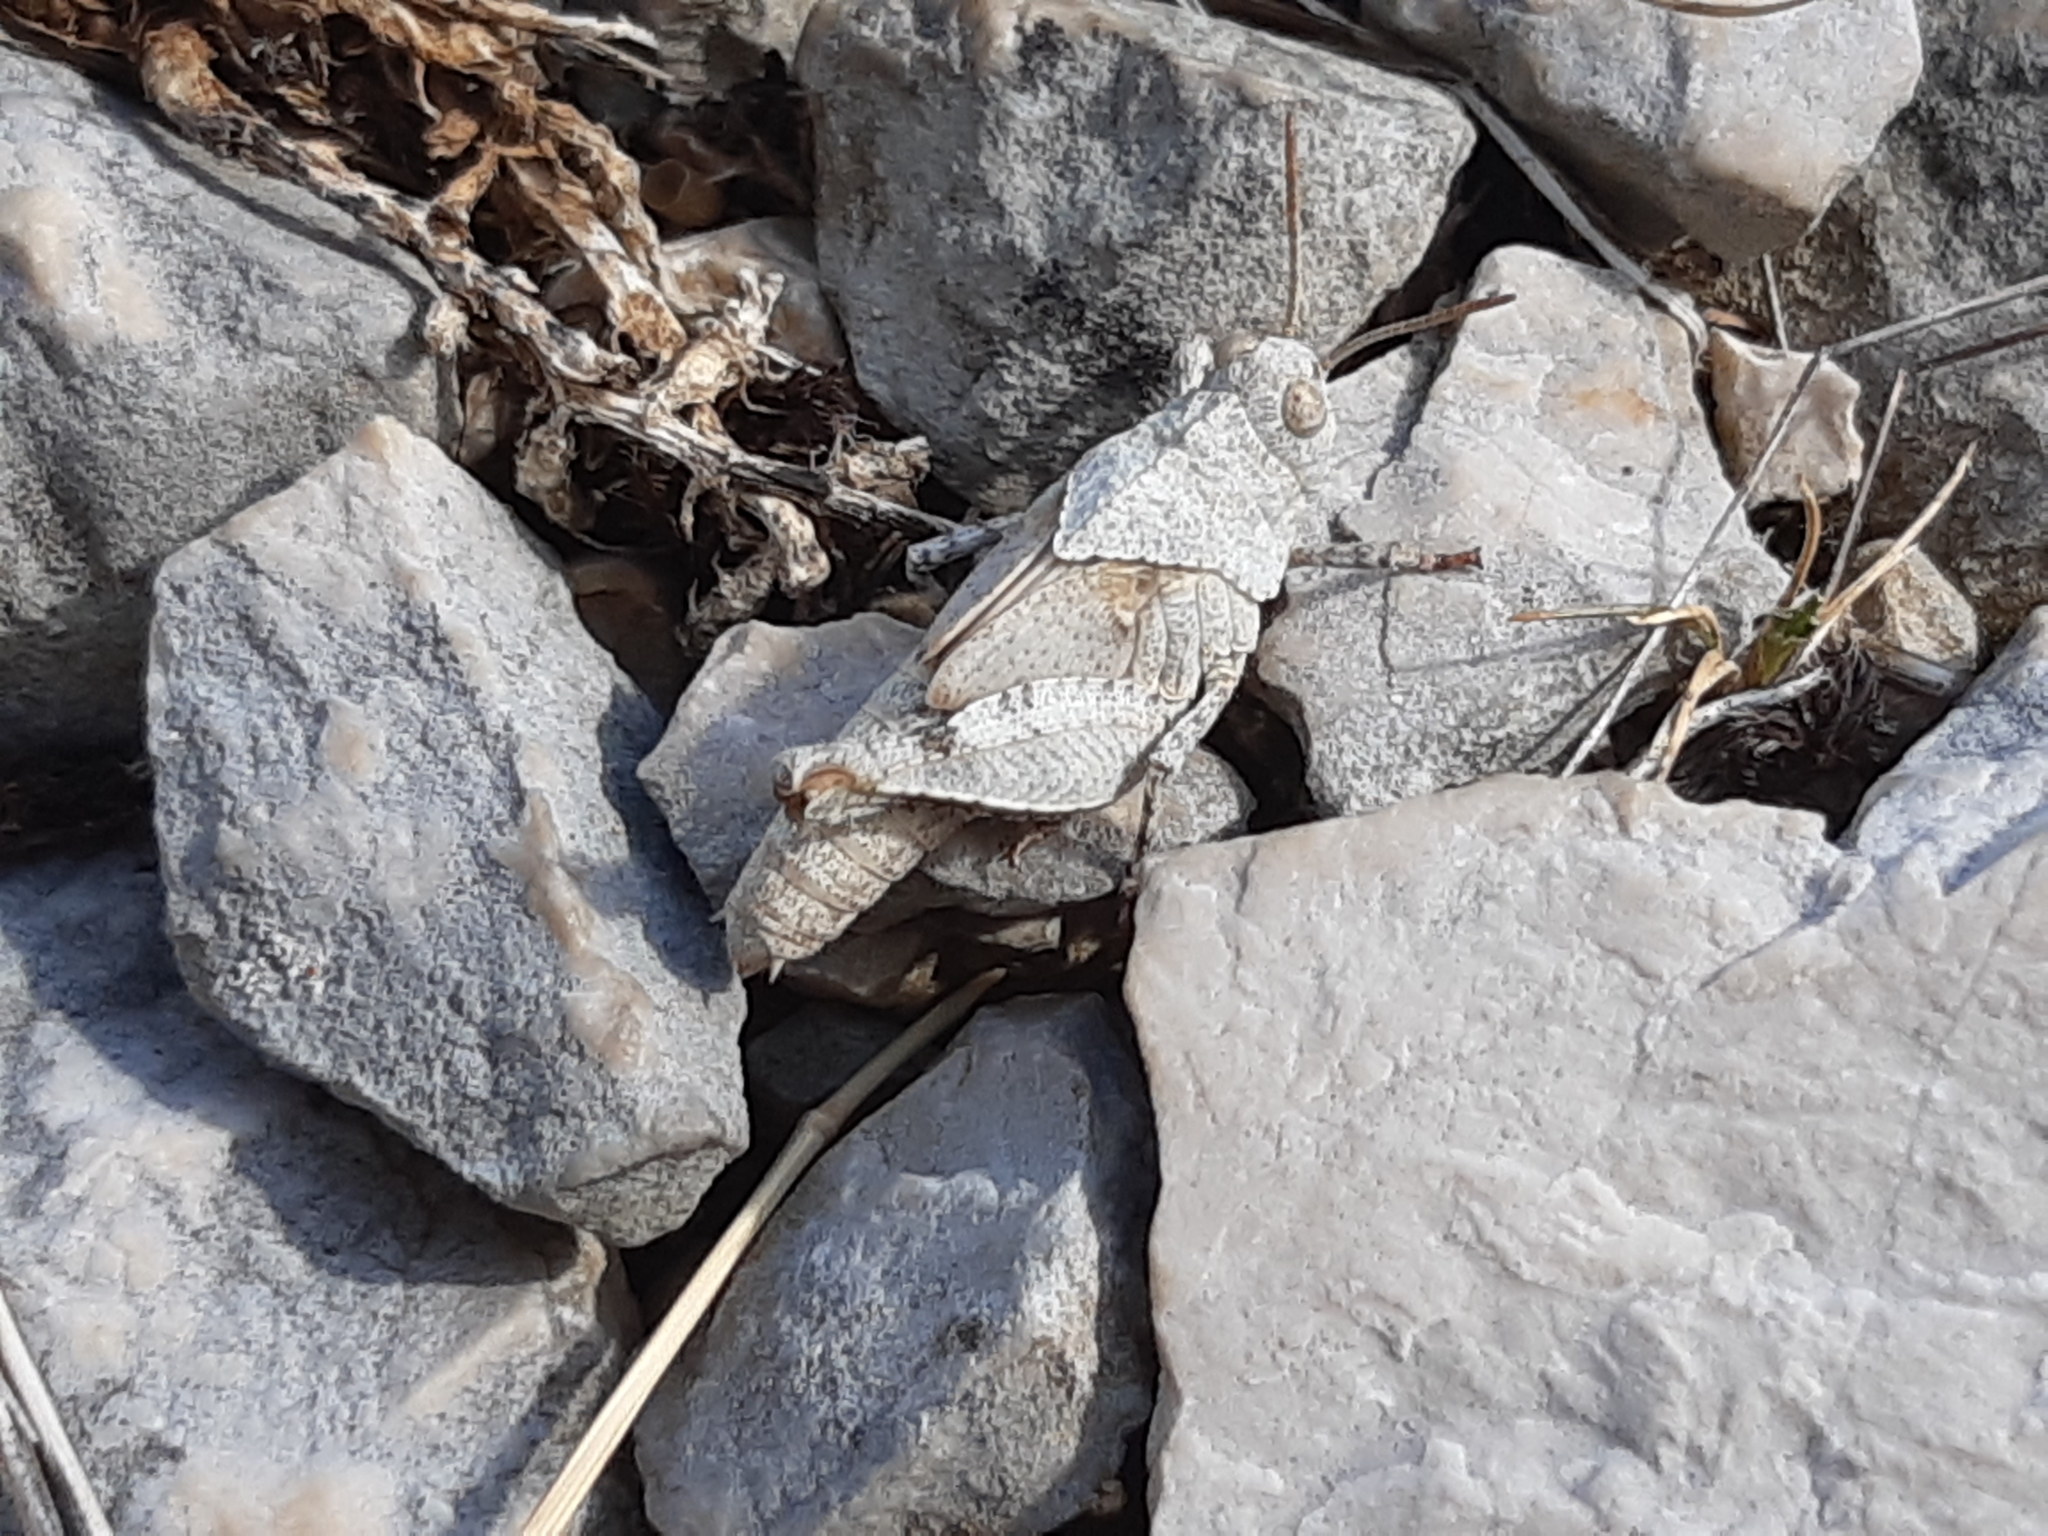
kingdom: Animalia
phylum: Arthropoda
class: Insecta
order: Orthoptera
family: Acrididae
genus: Oedipoda
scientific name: Oedipoda caerulescens
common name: Blue-winged grasshopper
